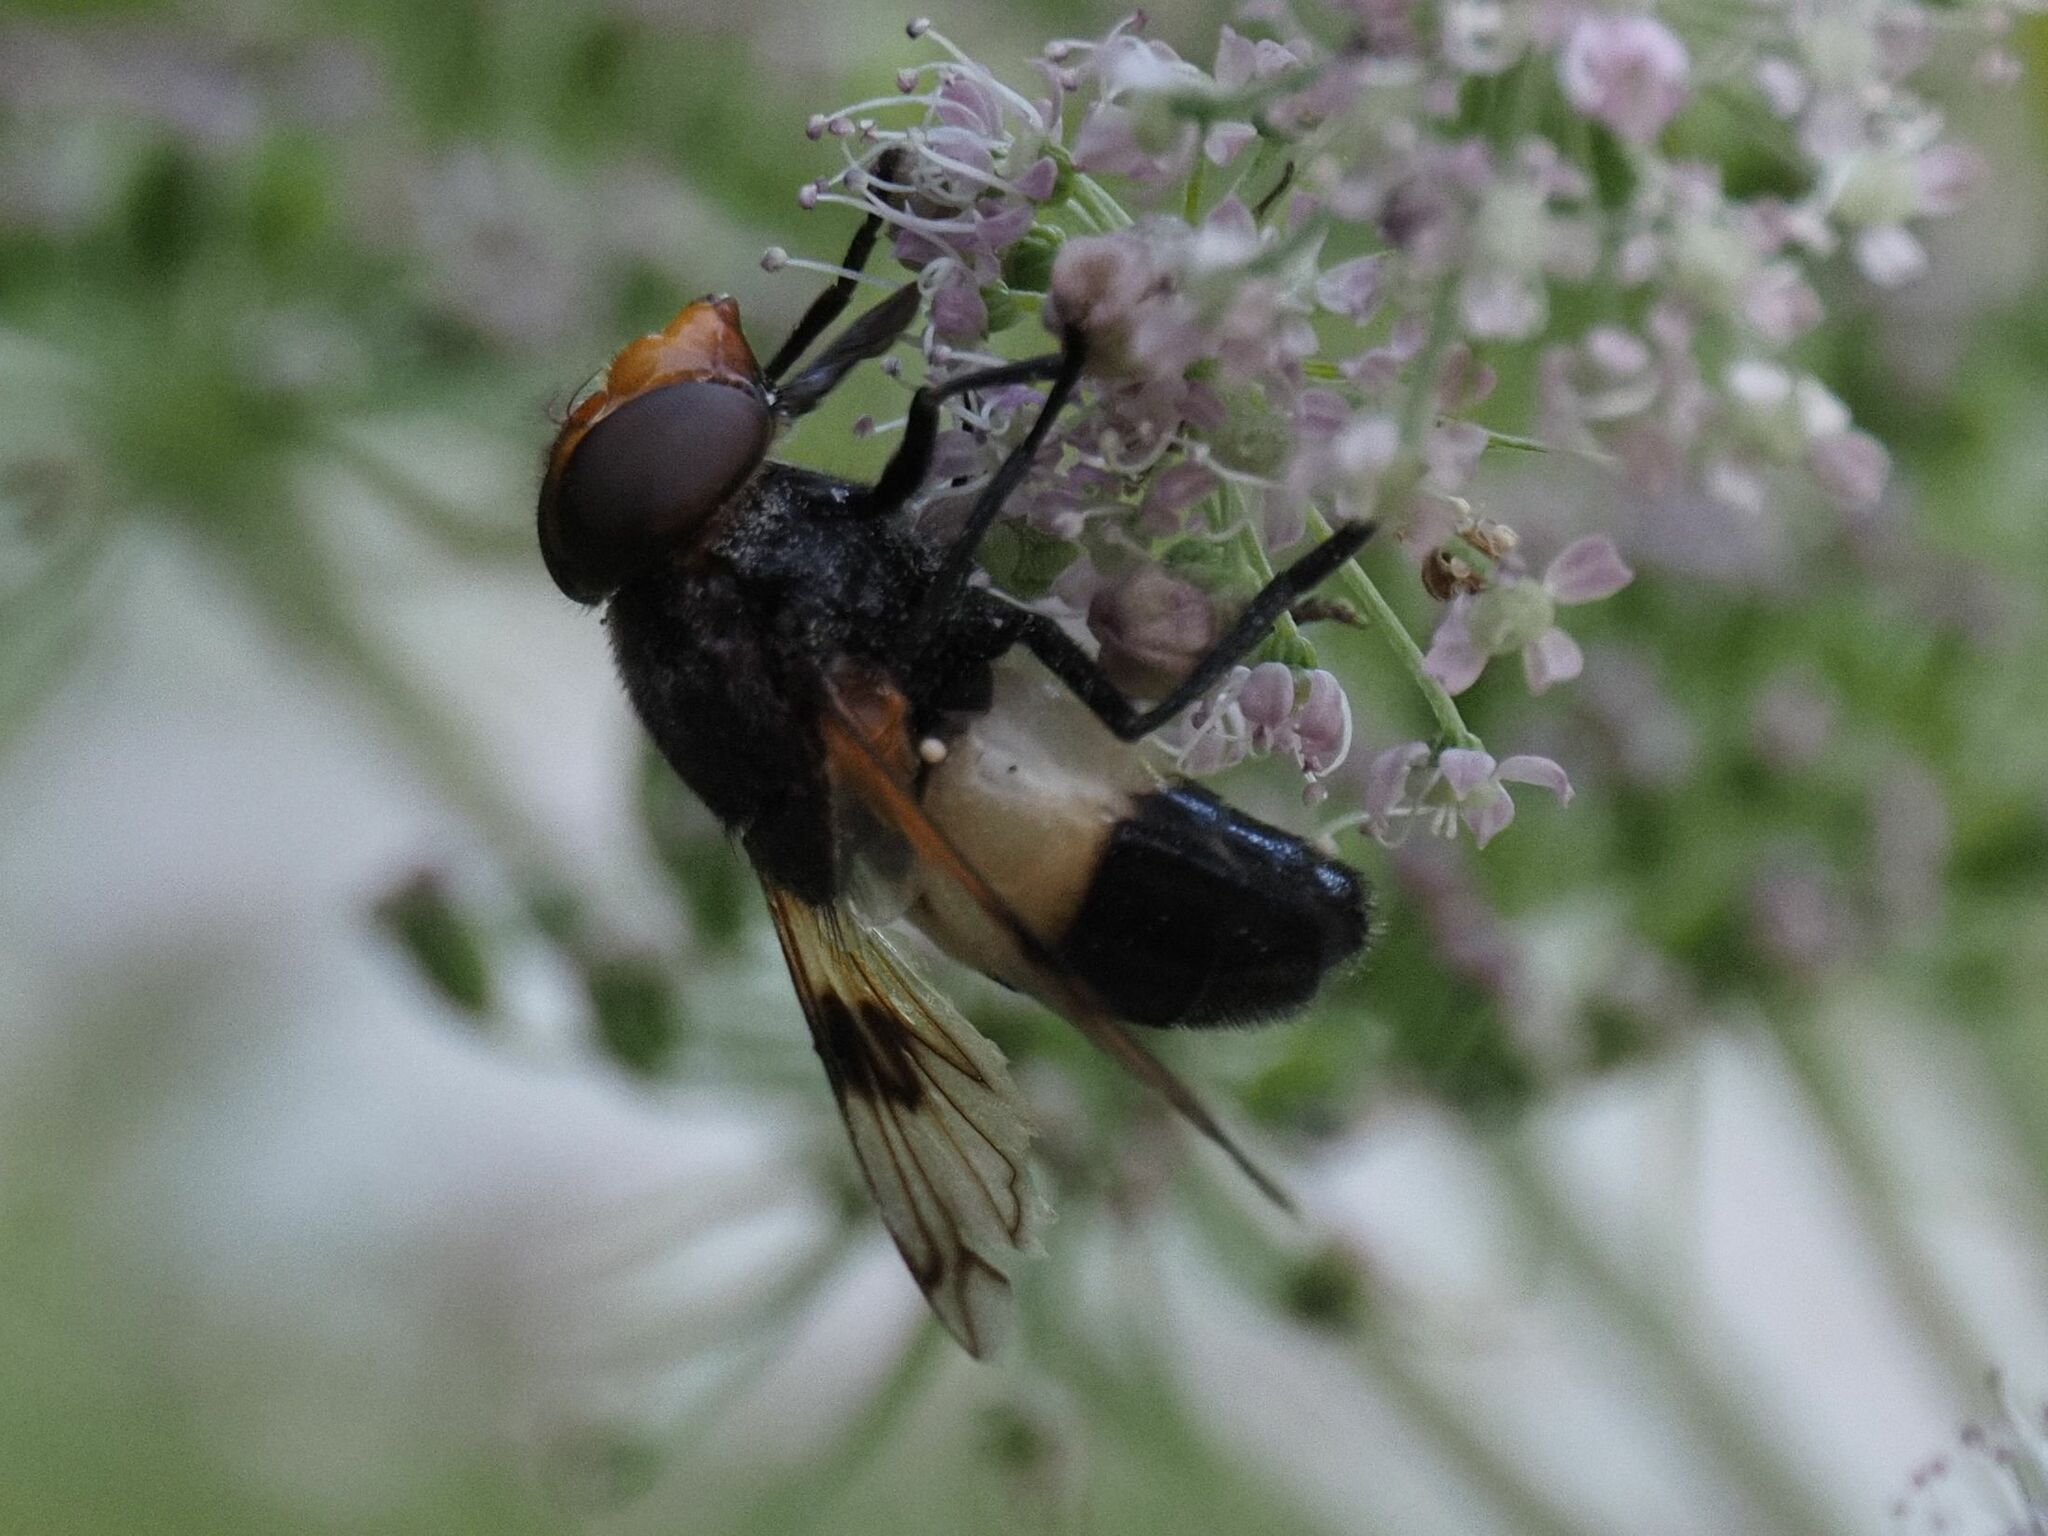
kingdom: Animalia
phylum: Arthropoda
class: Insecta
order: Diptera
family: Syrphidae
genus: Volucella
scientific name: Volucella pellucens
